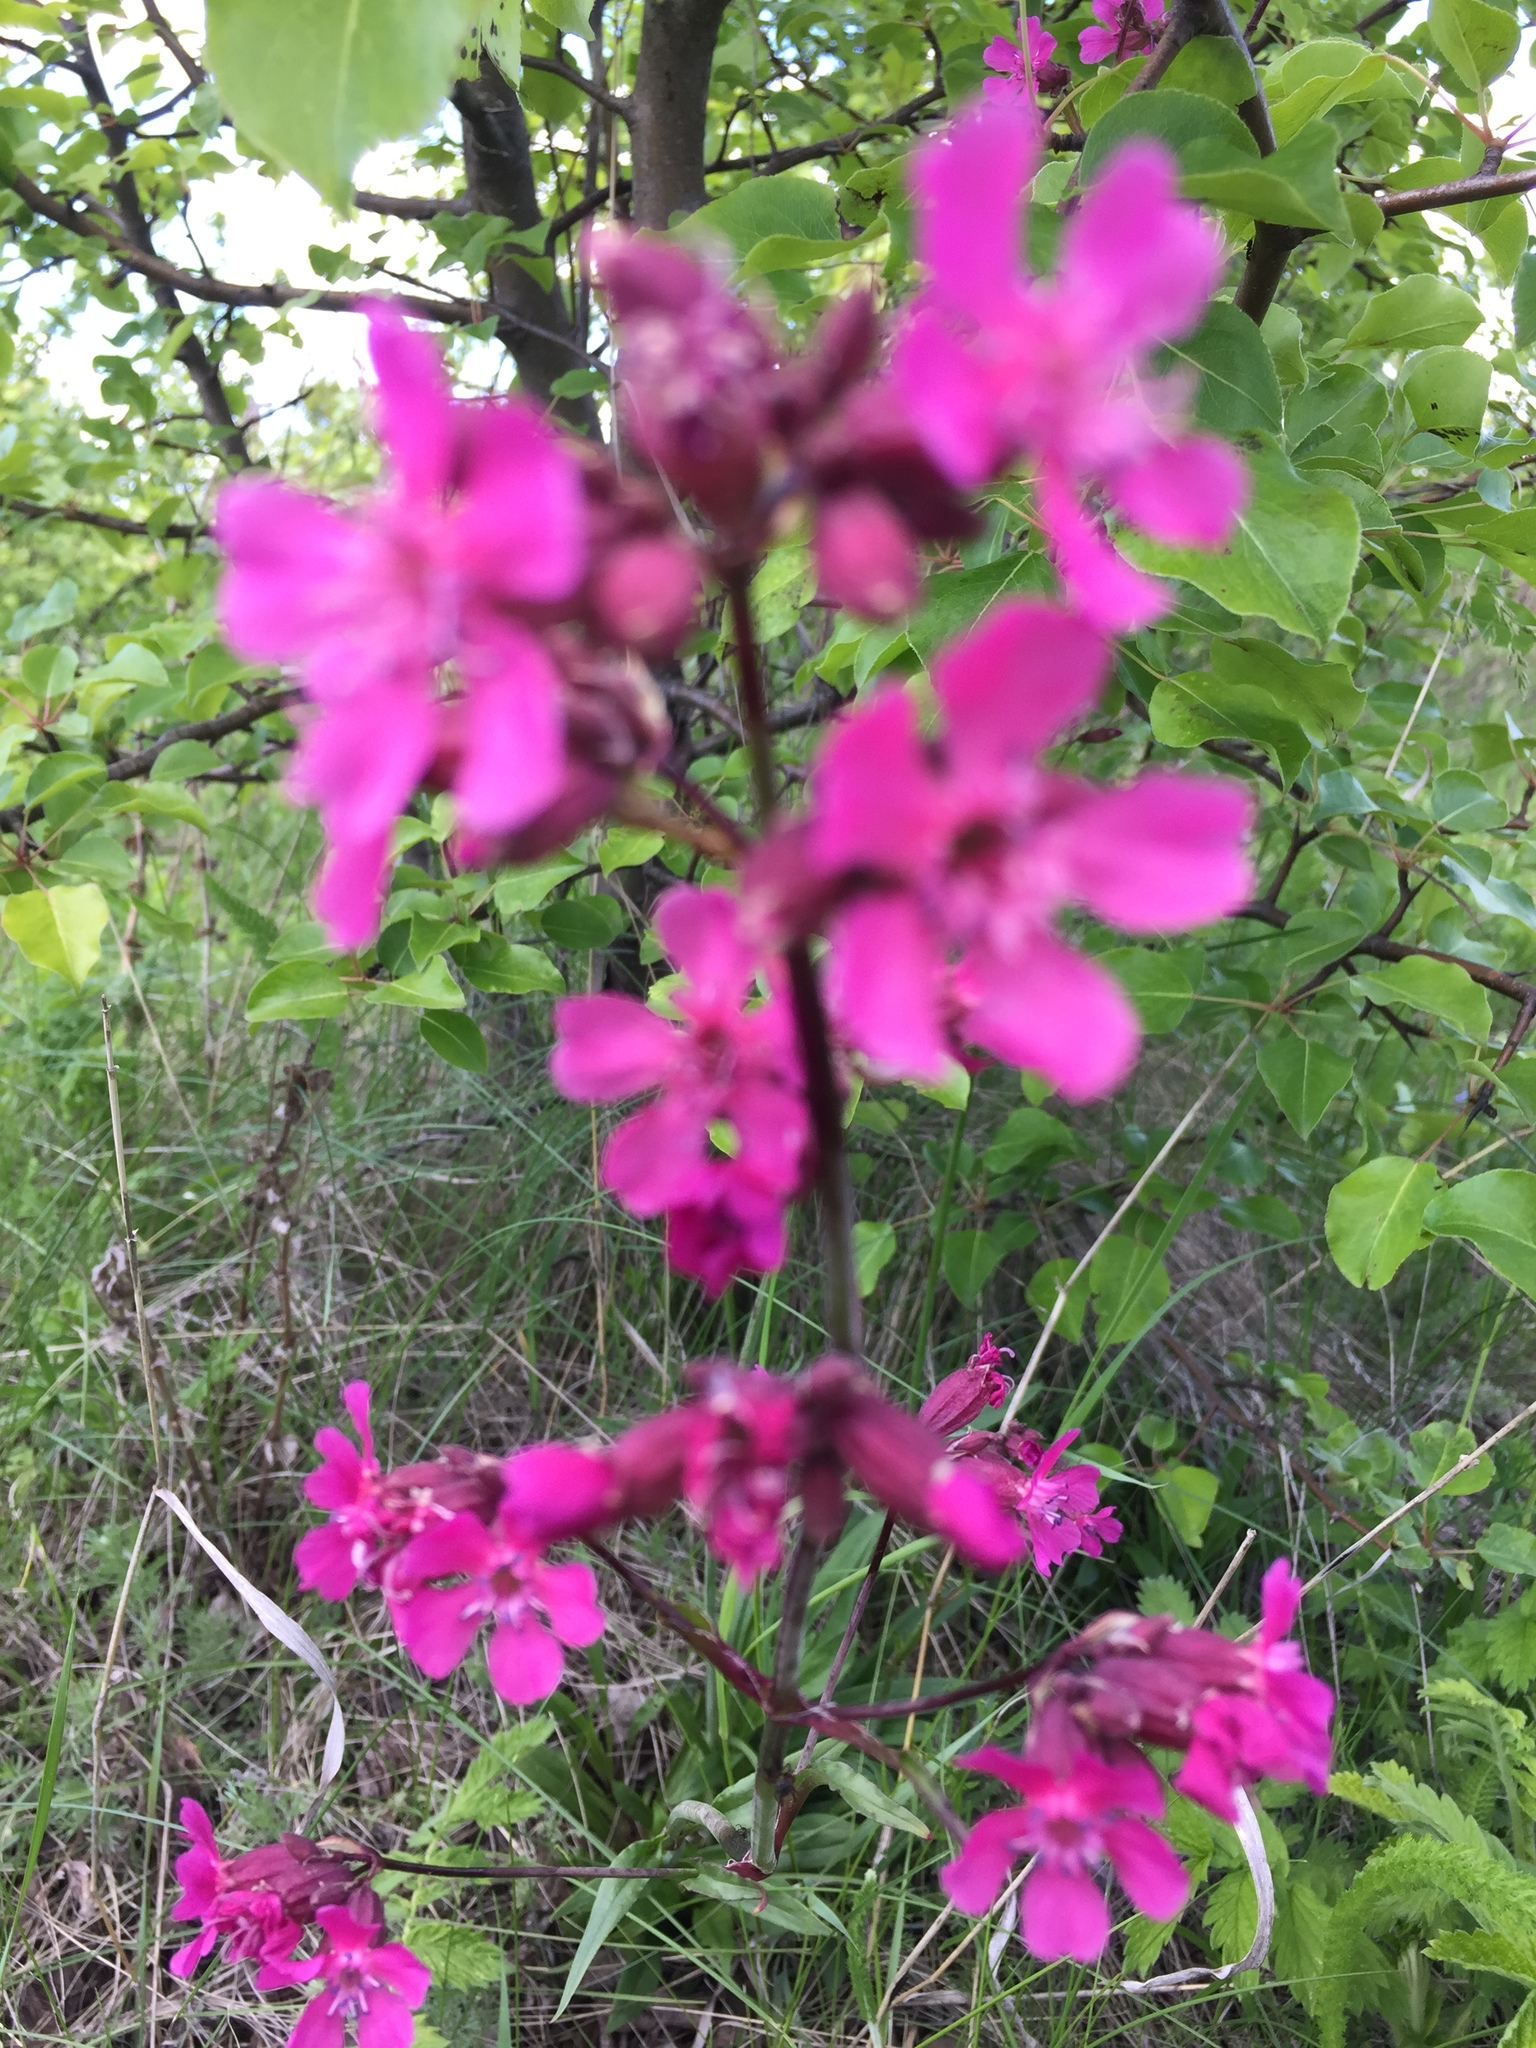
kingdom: Plantae
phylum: Tracheophyta
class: Magnoliopsida
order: Caryophyllales
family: Caryophyllaceae
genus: Viscaria
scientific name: Viscaria vulgaris
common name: Clammy campion
